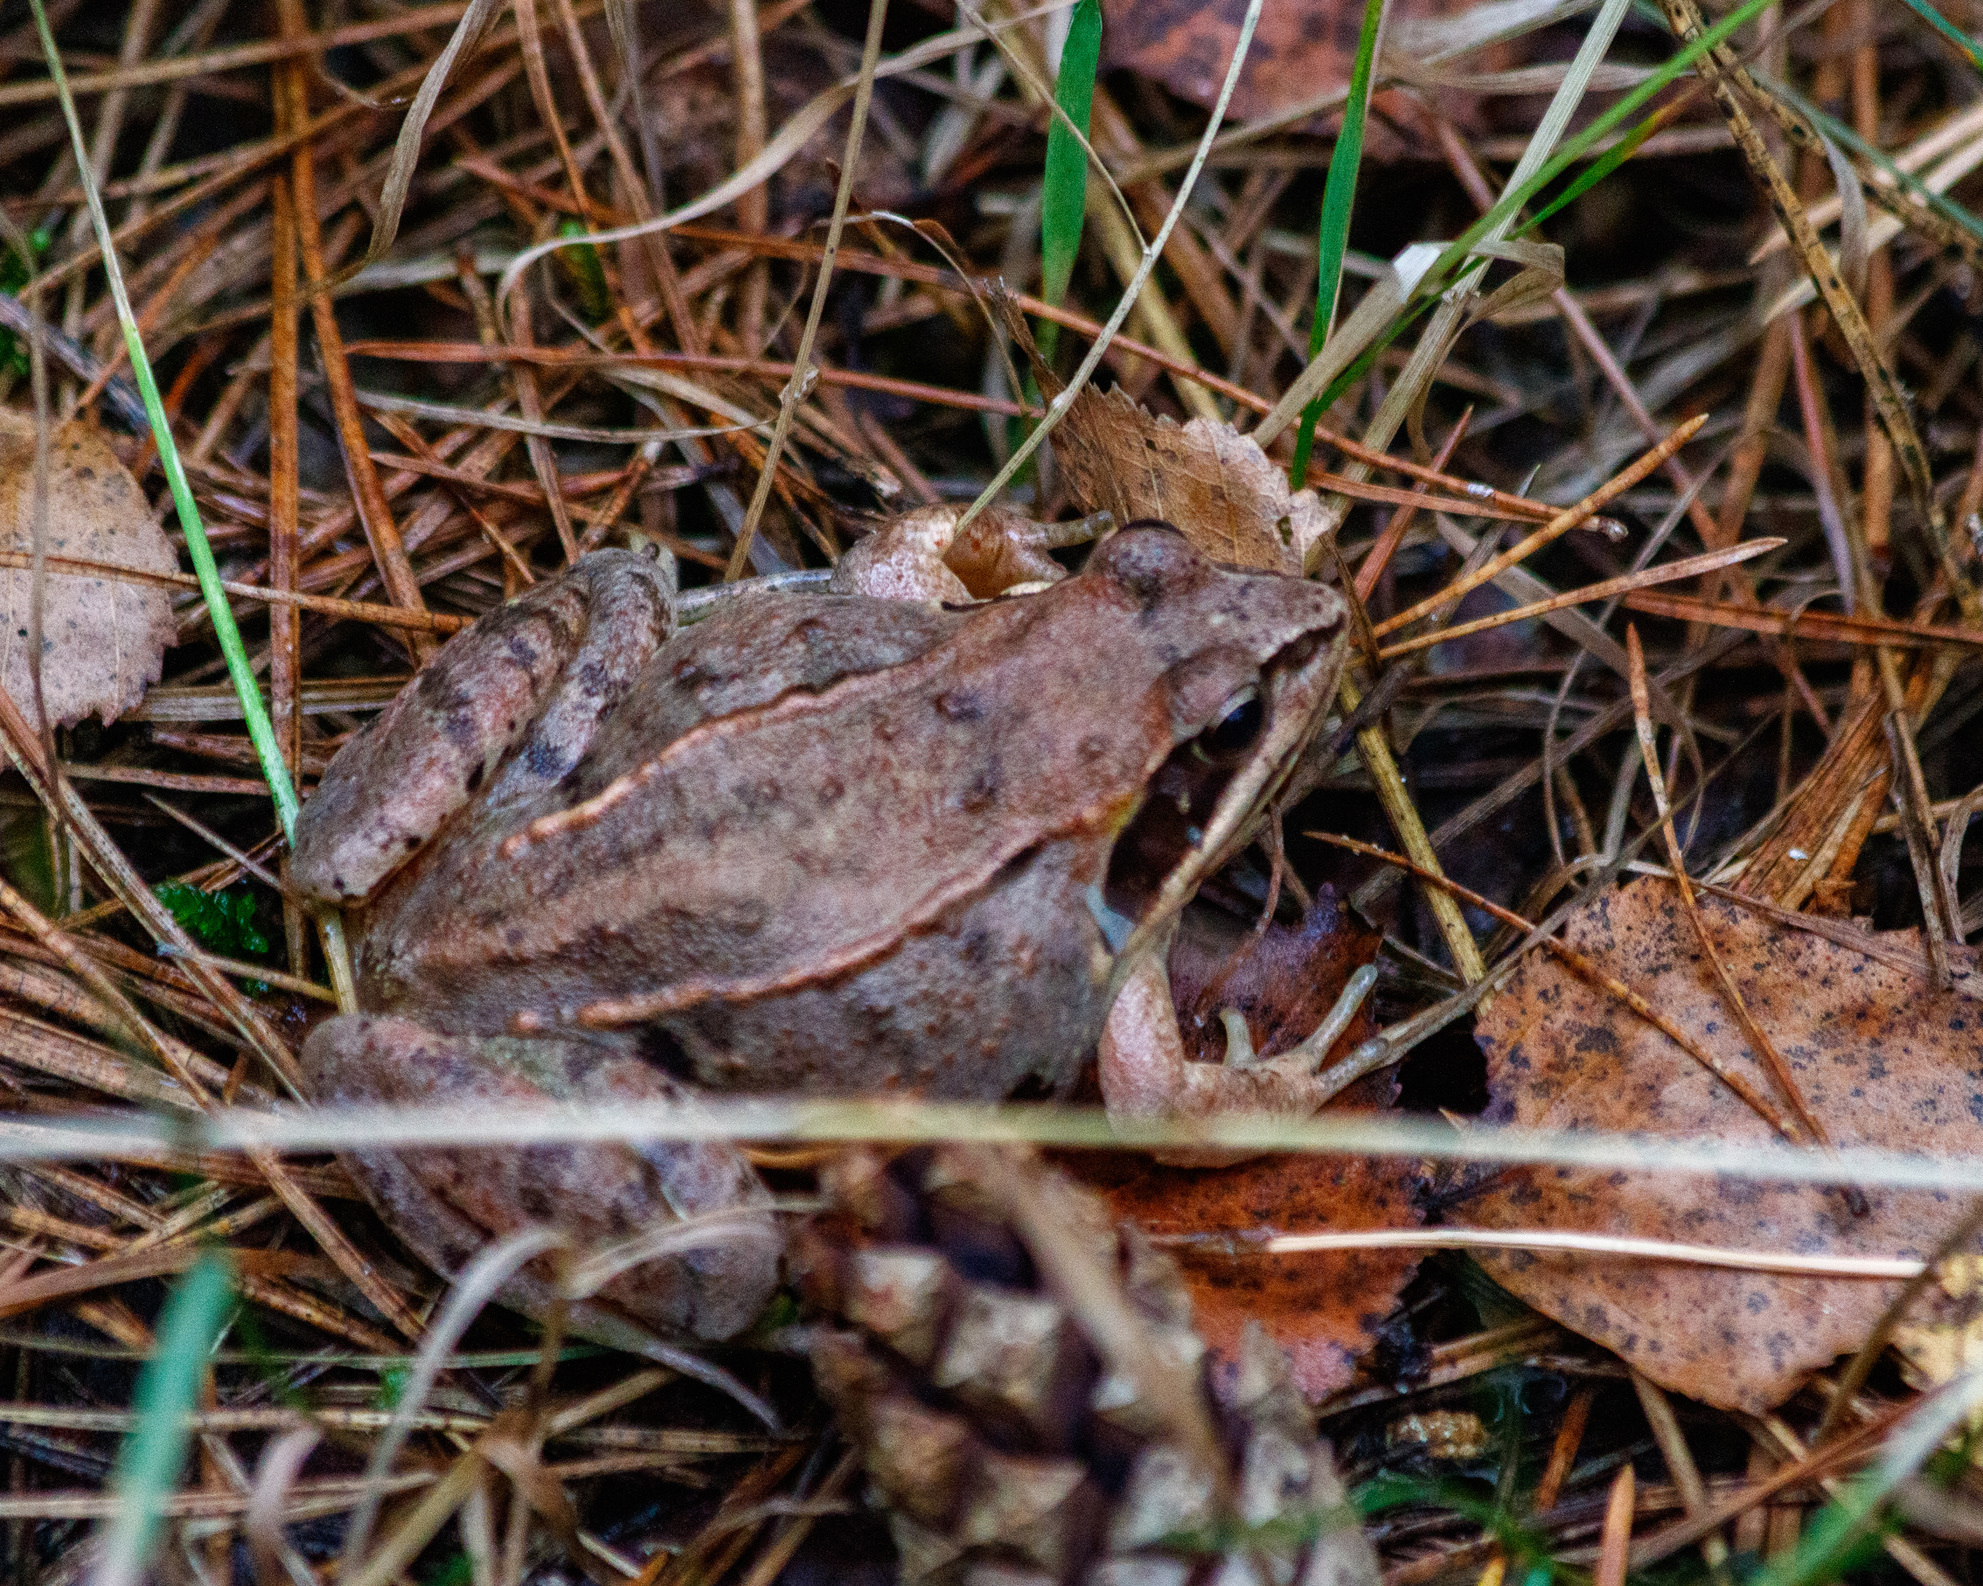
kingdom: Animalia
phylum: Chordata
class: Amphibia
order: Anura
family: Ranidae
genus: Rana
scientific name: Rana arvalis
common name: Moor frog
